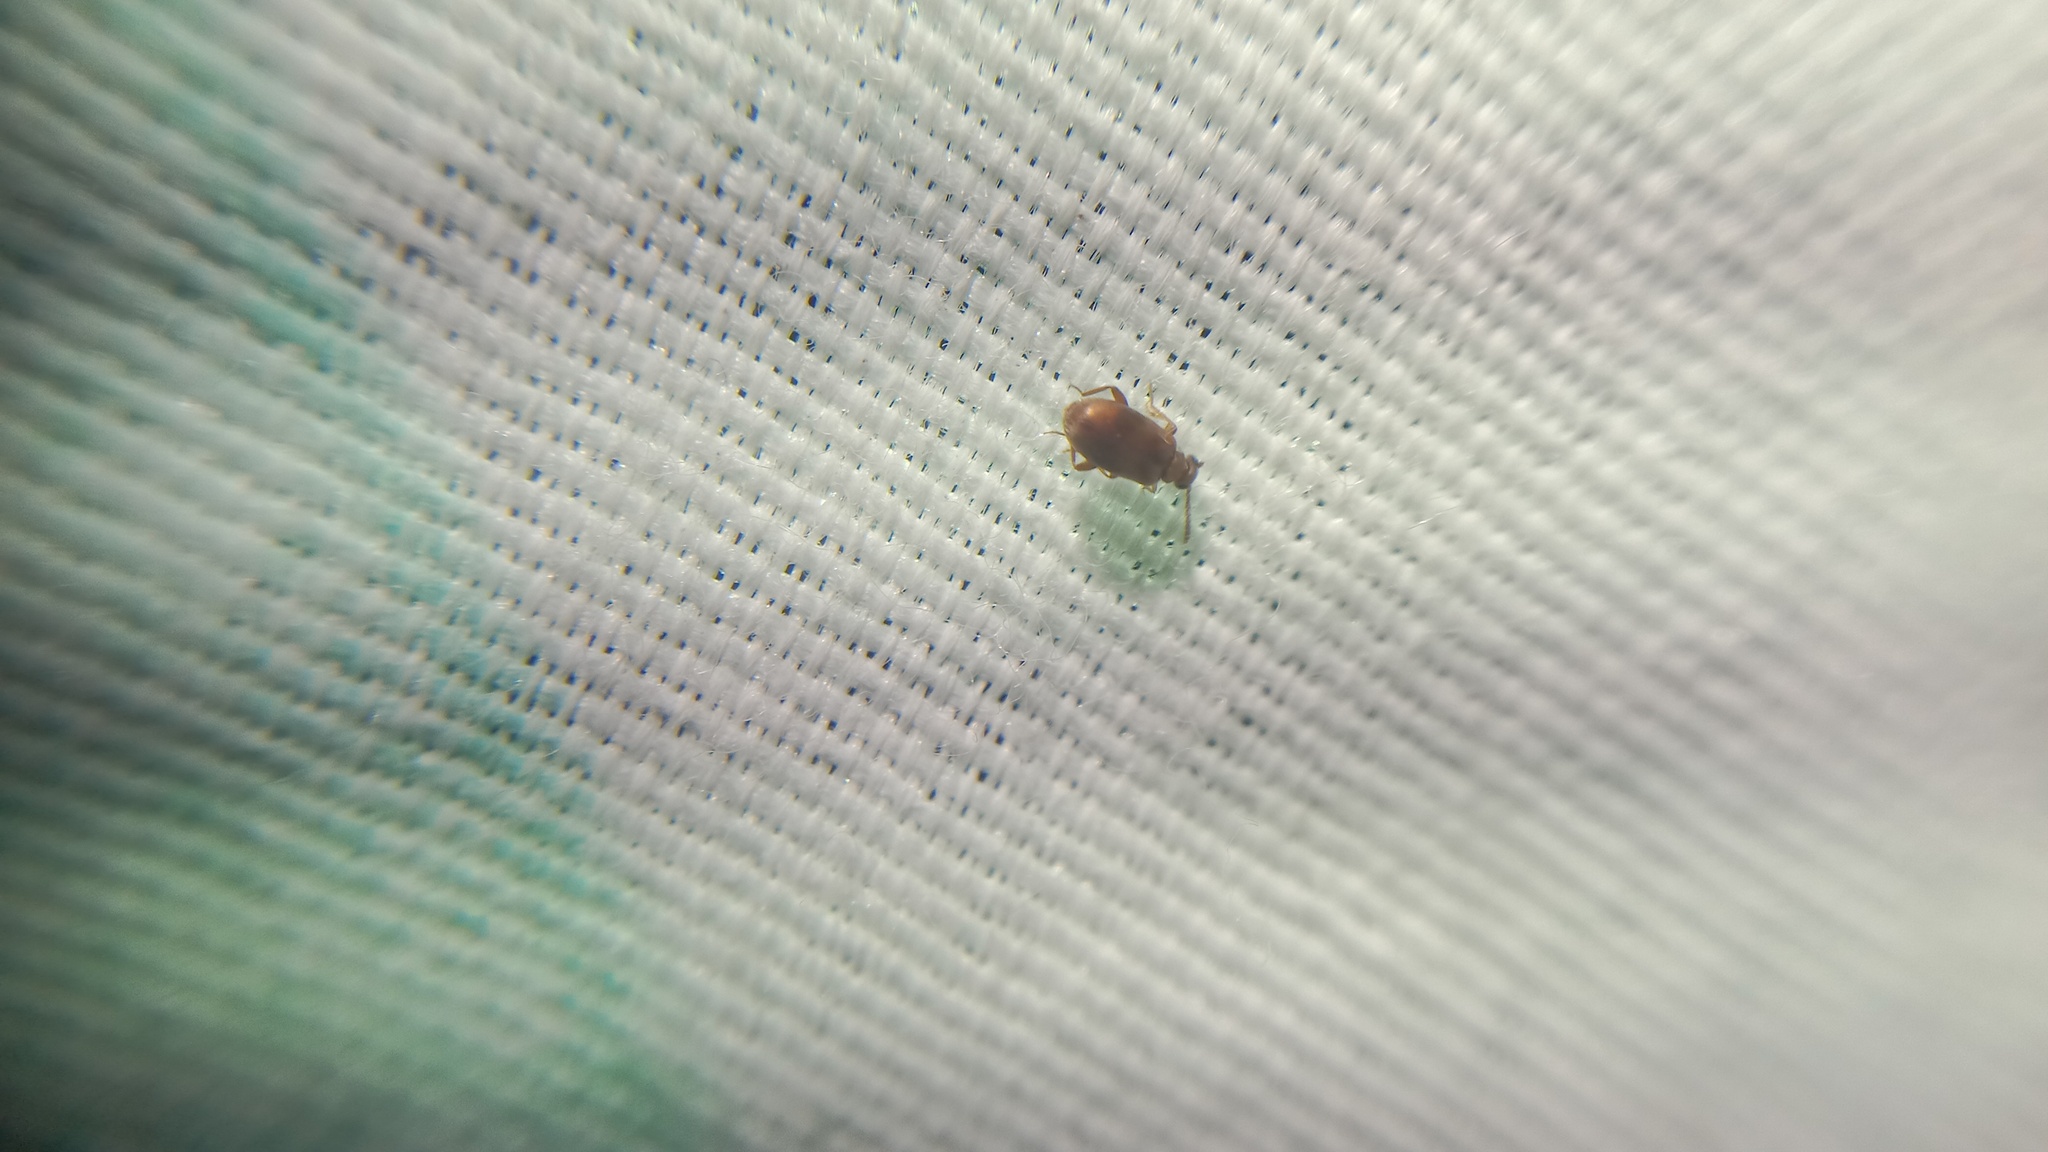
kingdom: Animalia
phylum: Arthropoda
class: Insecta
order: Coleoptera
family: Aderidae
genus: Aderus
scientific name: Aderus populneus
